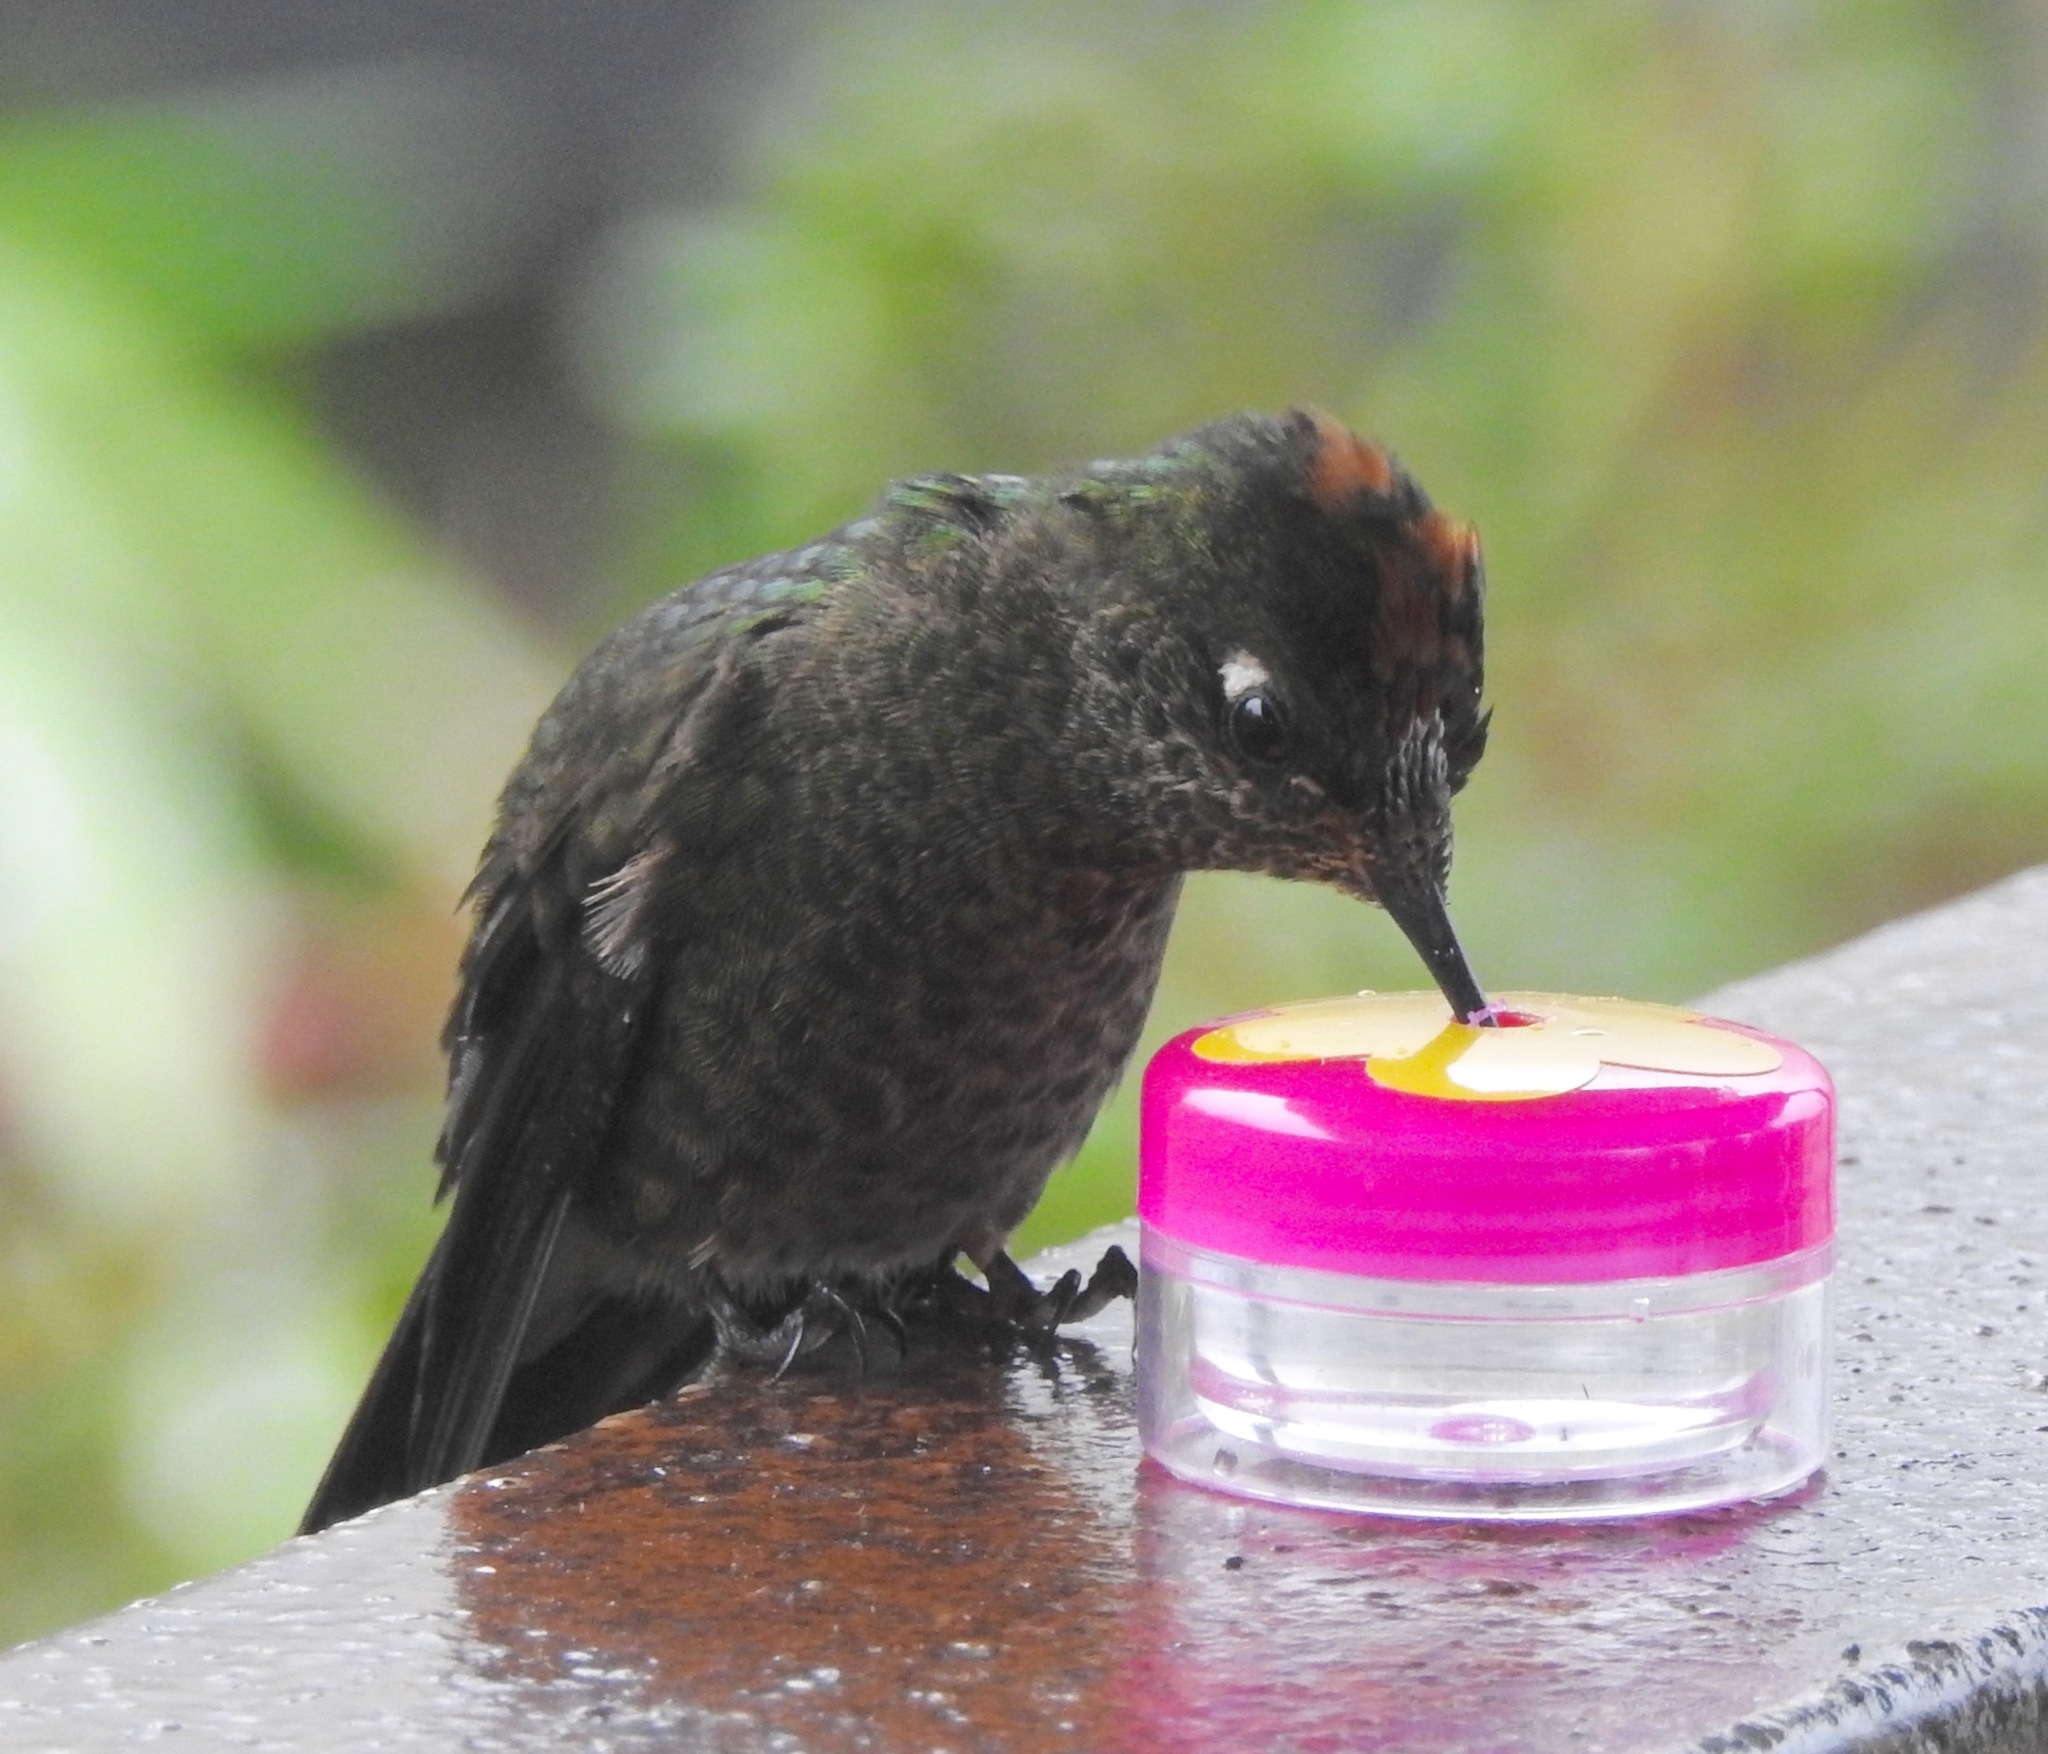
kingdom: Animalia
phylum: Chordata
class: Aves
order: Apodiformes
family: Trochilidae
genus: Chalcostigma
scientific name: Chalcostigma herrani
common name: Rainbow-bearded thornbill
